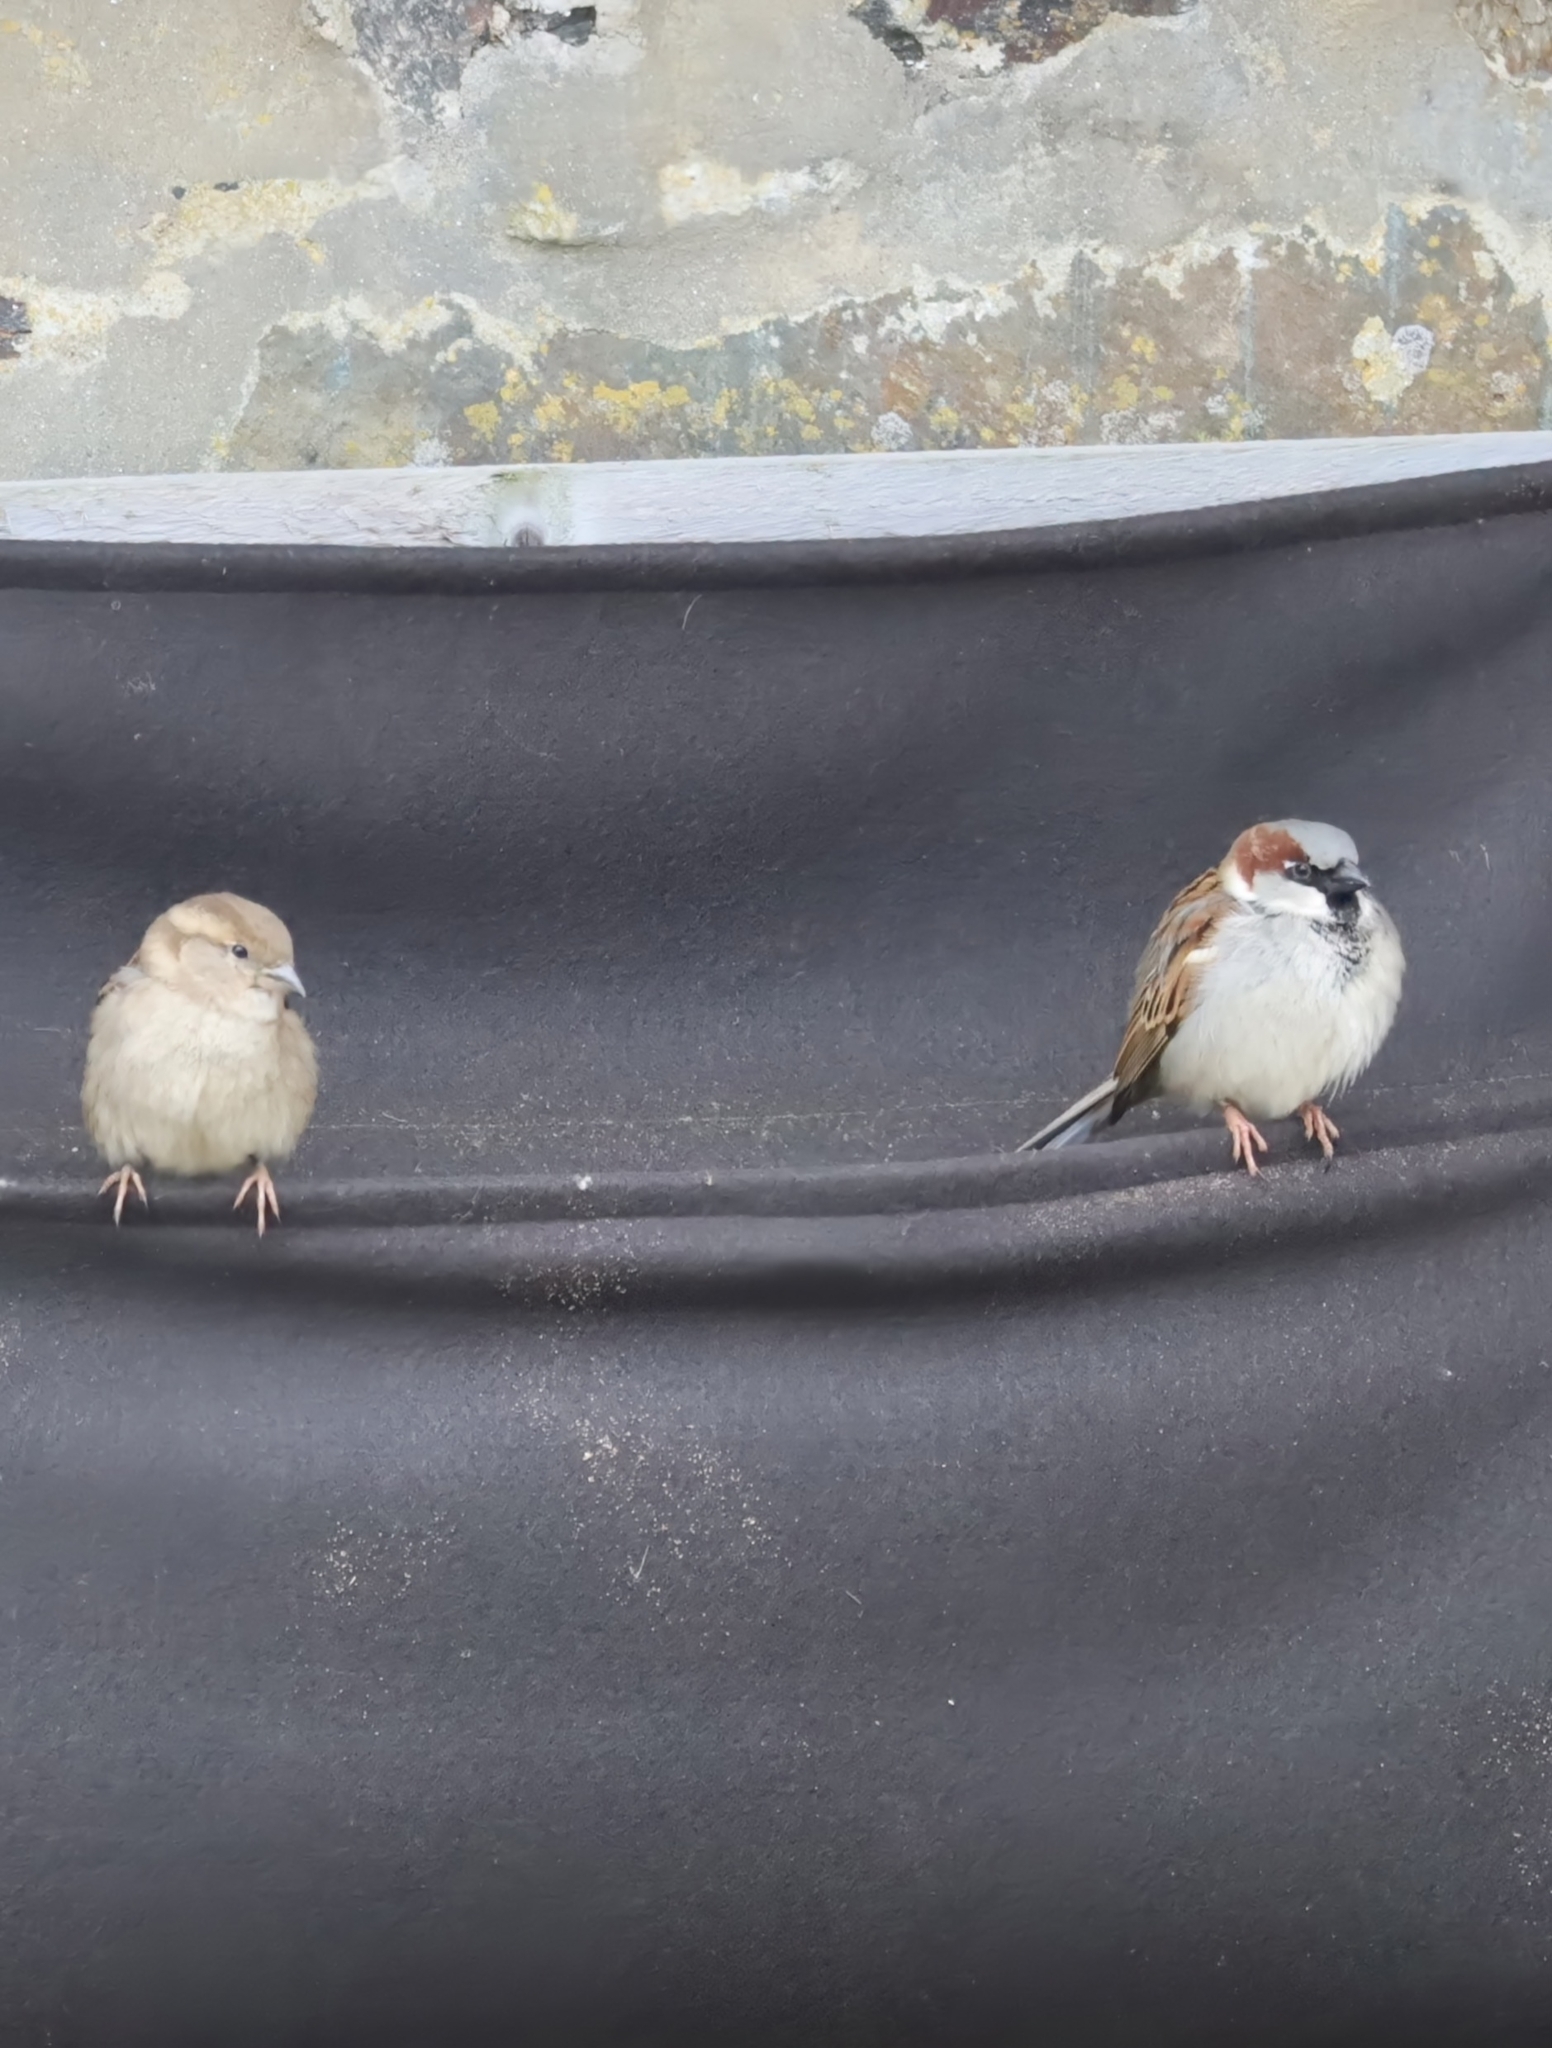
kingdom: Animalia
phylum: Chordata
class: Aves
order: Passeriformes
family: Passeridae
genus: Passer
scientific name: Passer domesticus
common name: House sparrow
